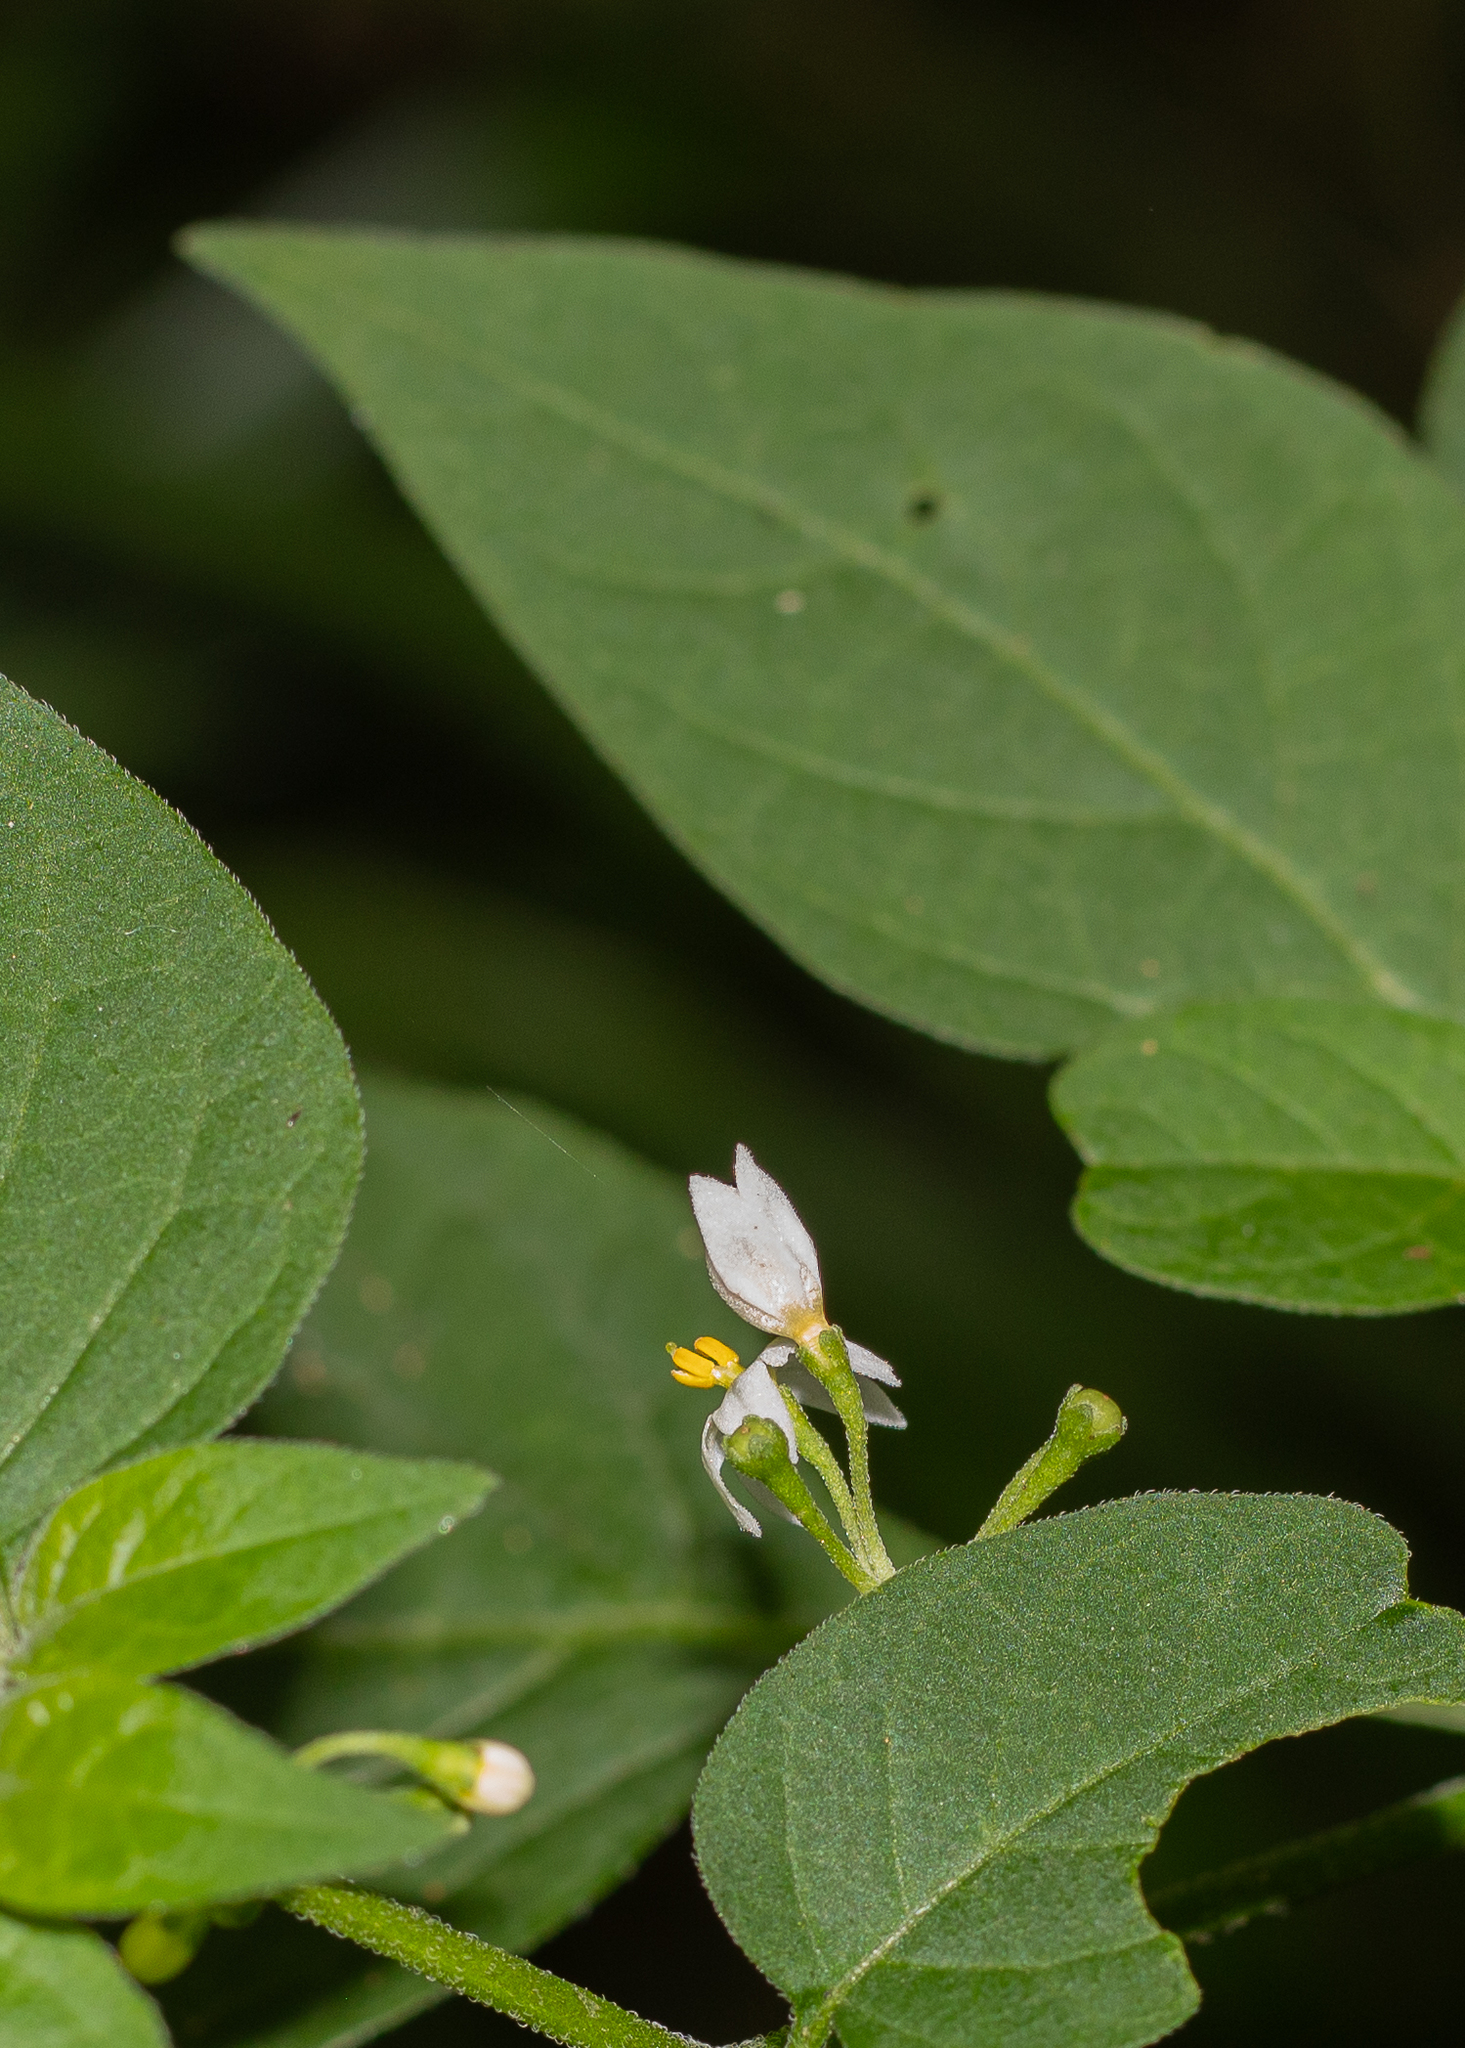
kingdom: Plantae
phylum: Tracheophyta
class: Magnoliopsida
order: Solanales
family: Solanaceae
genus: Solanum
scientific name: Solanum americanum
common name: American black nightshade
